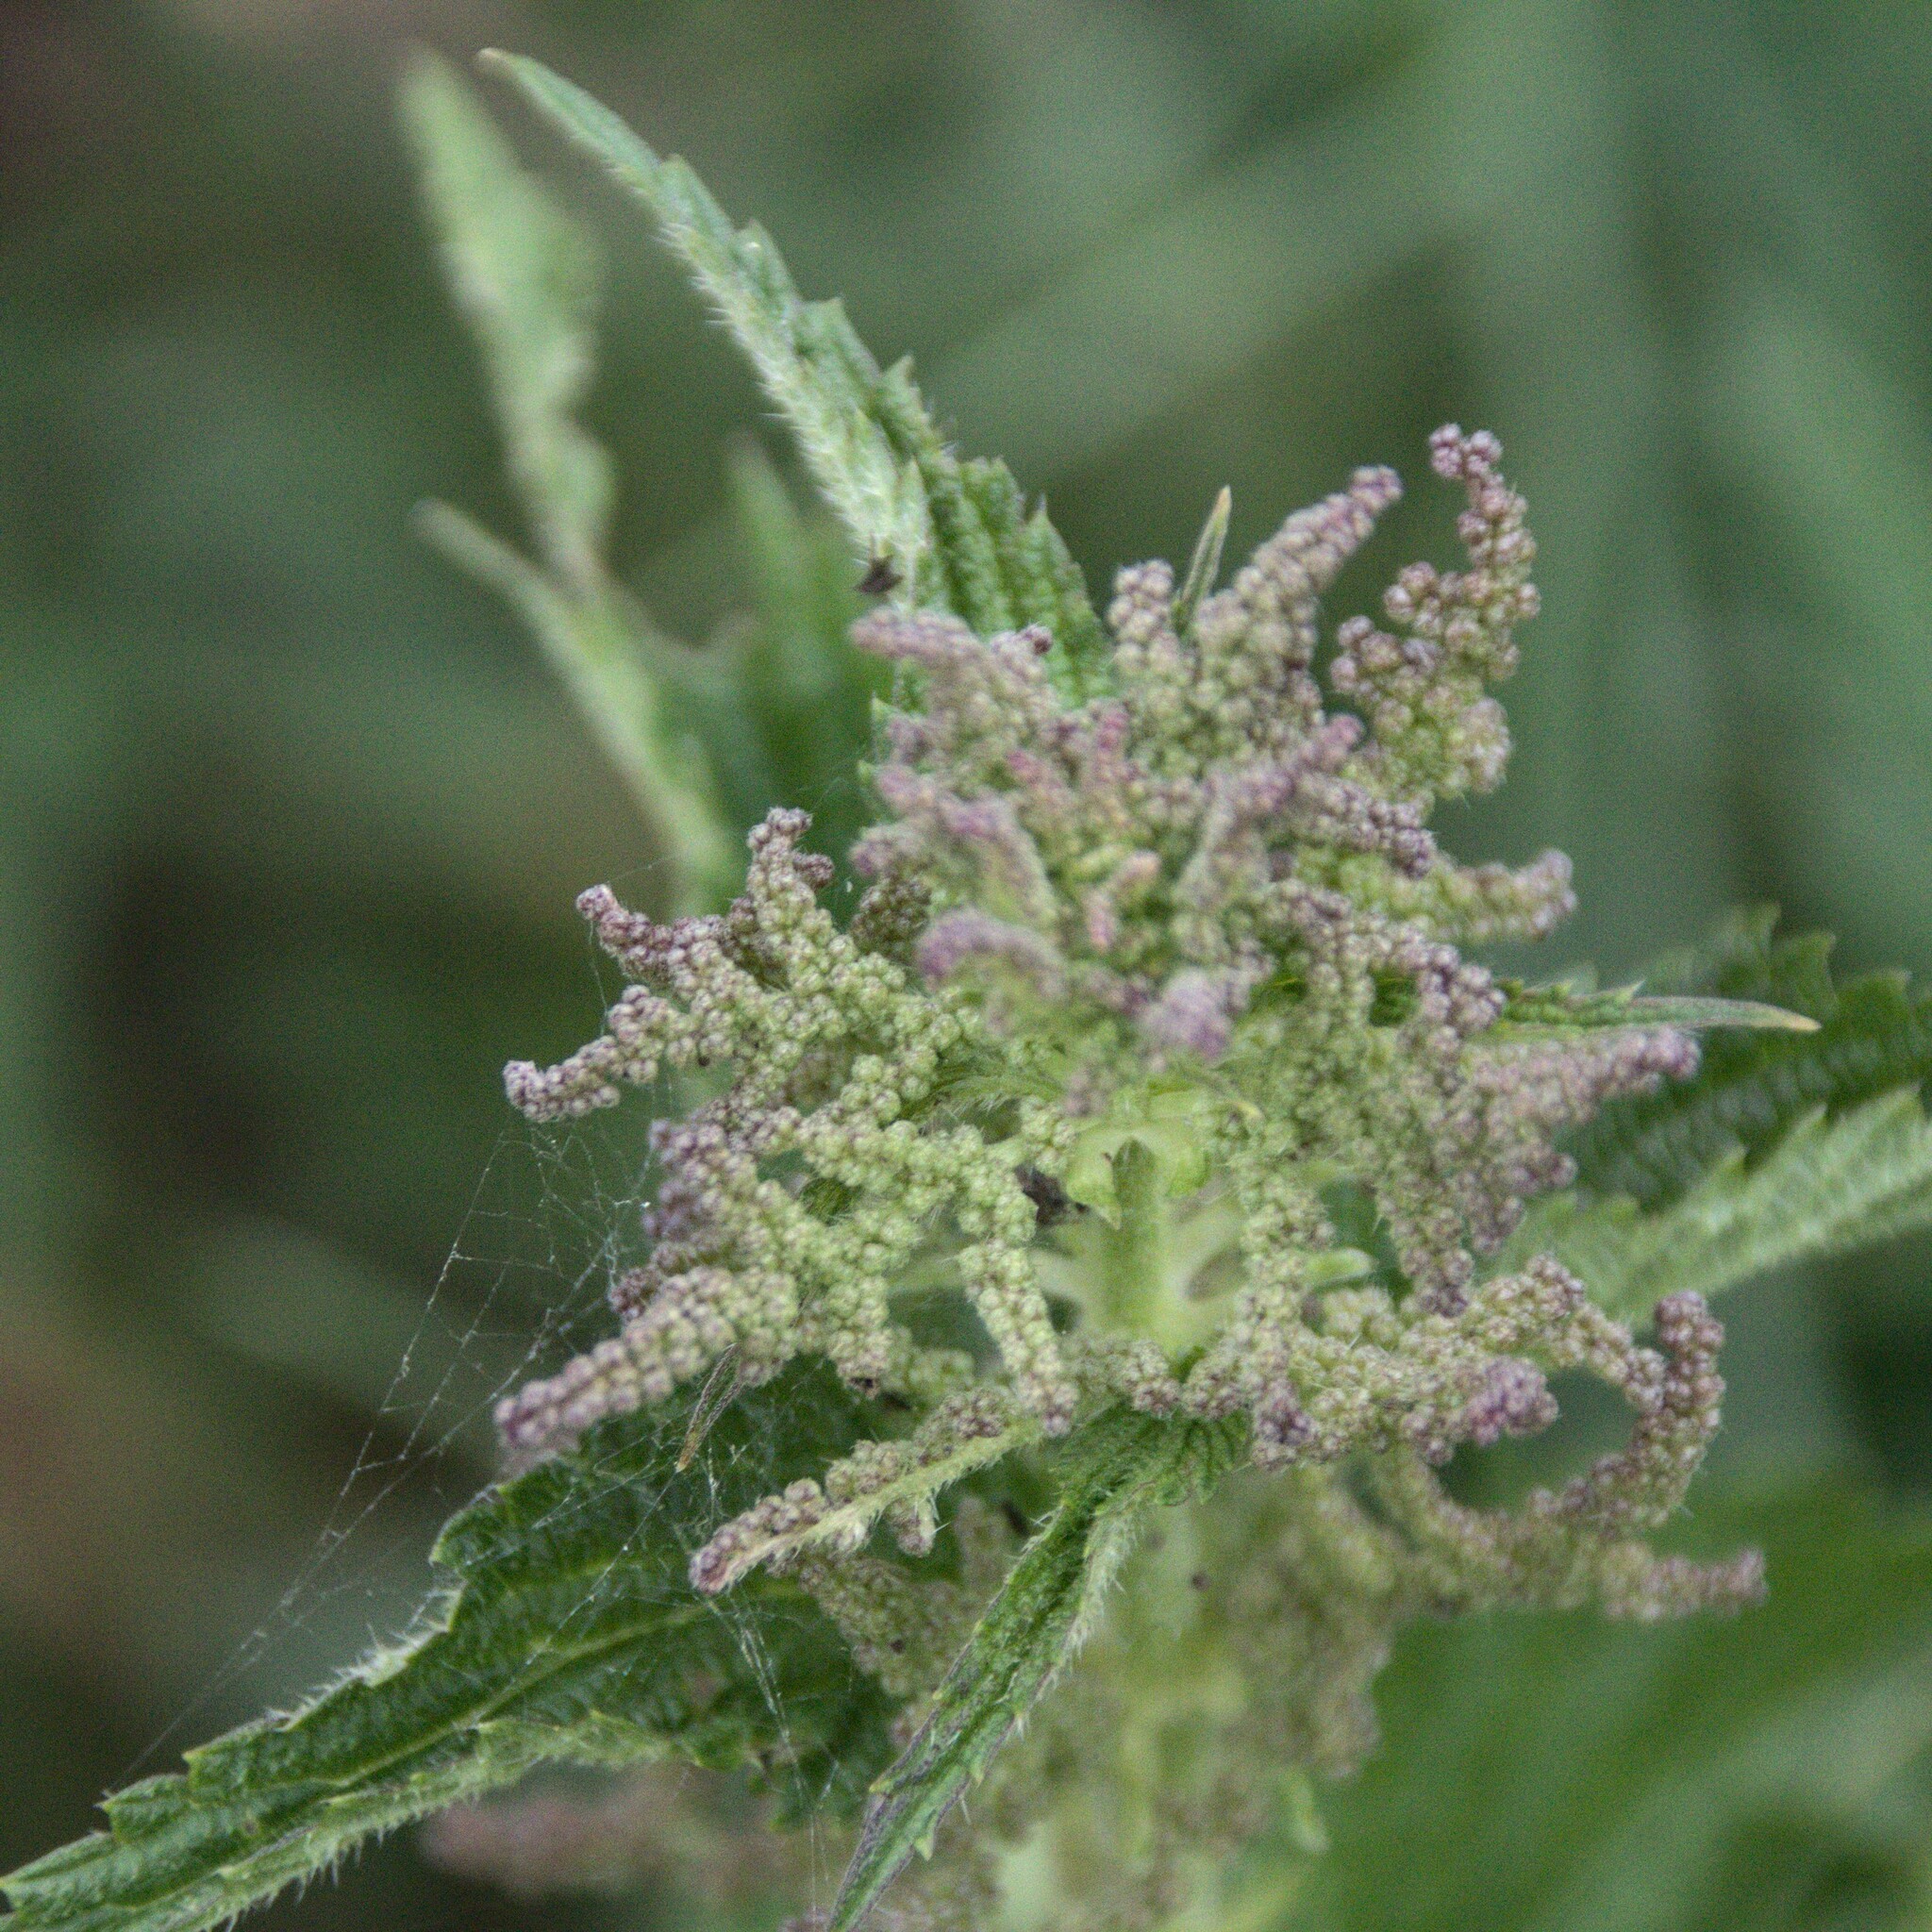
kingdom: Plantae
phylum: Tracheophyta
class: Magnoliopsida
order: Rosales
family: Urticaceae
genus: Urtica
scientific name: Urtica dioica
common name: Common nettle
